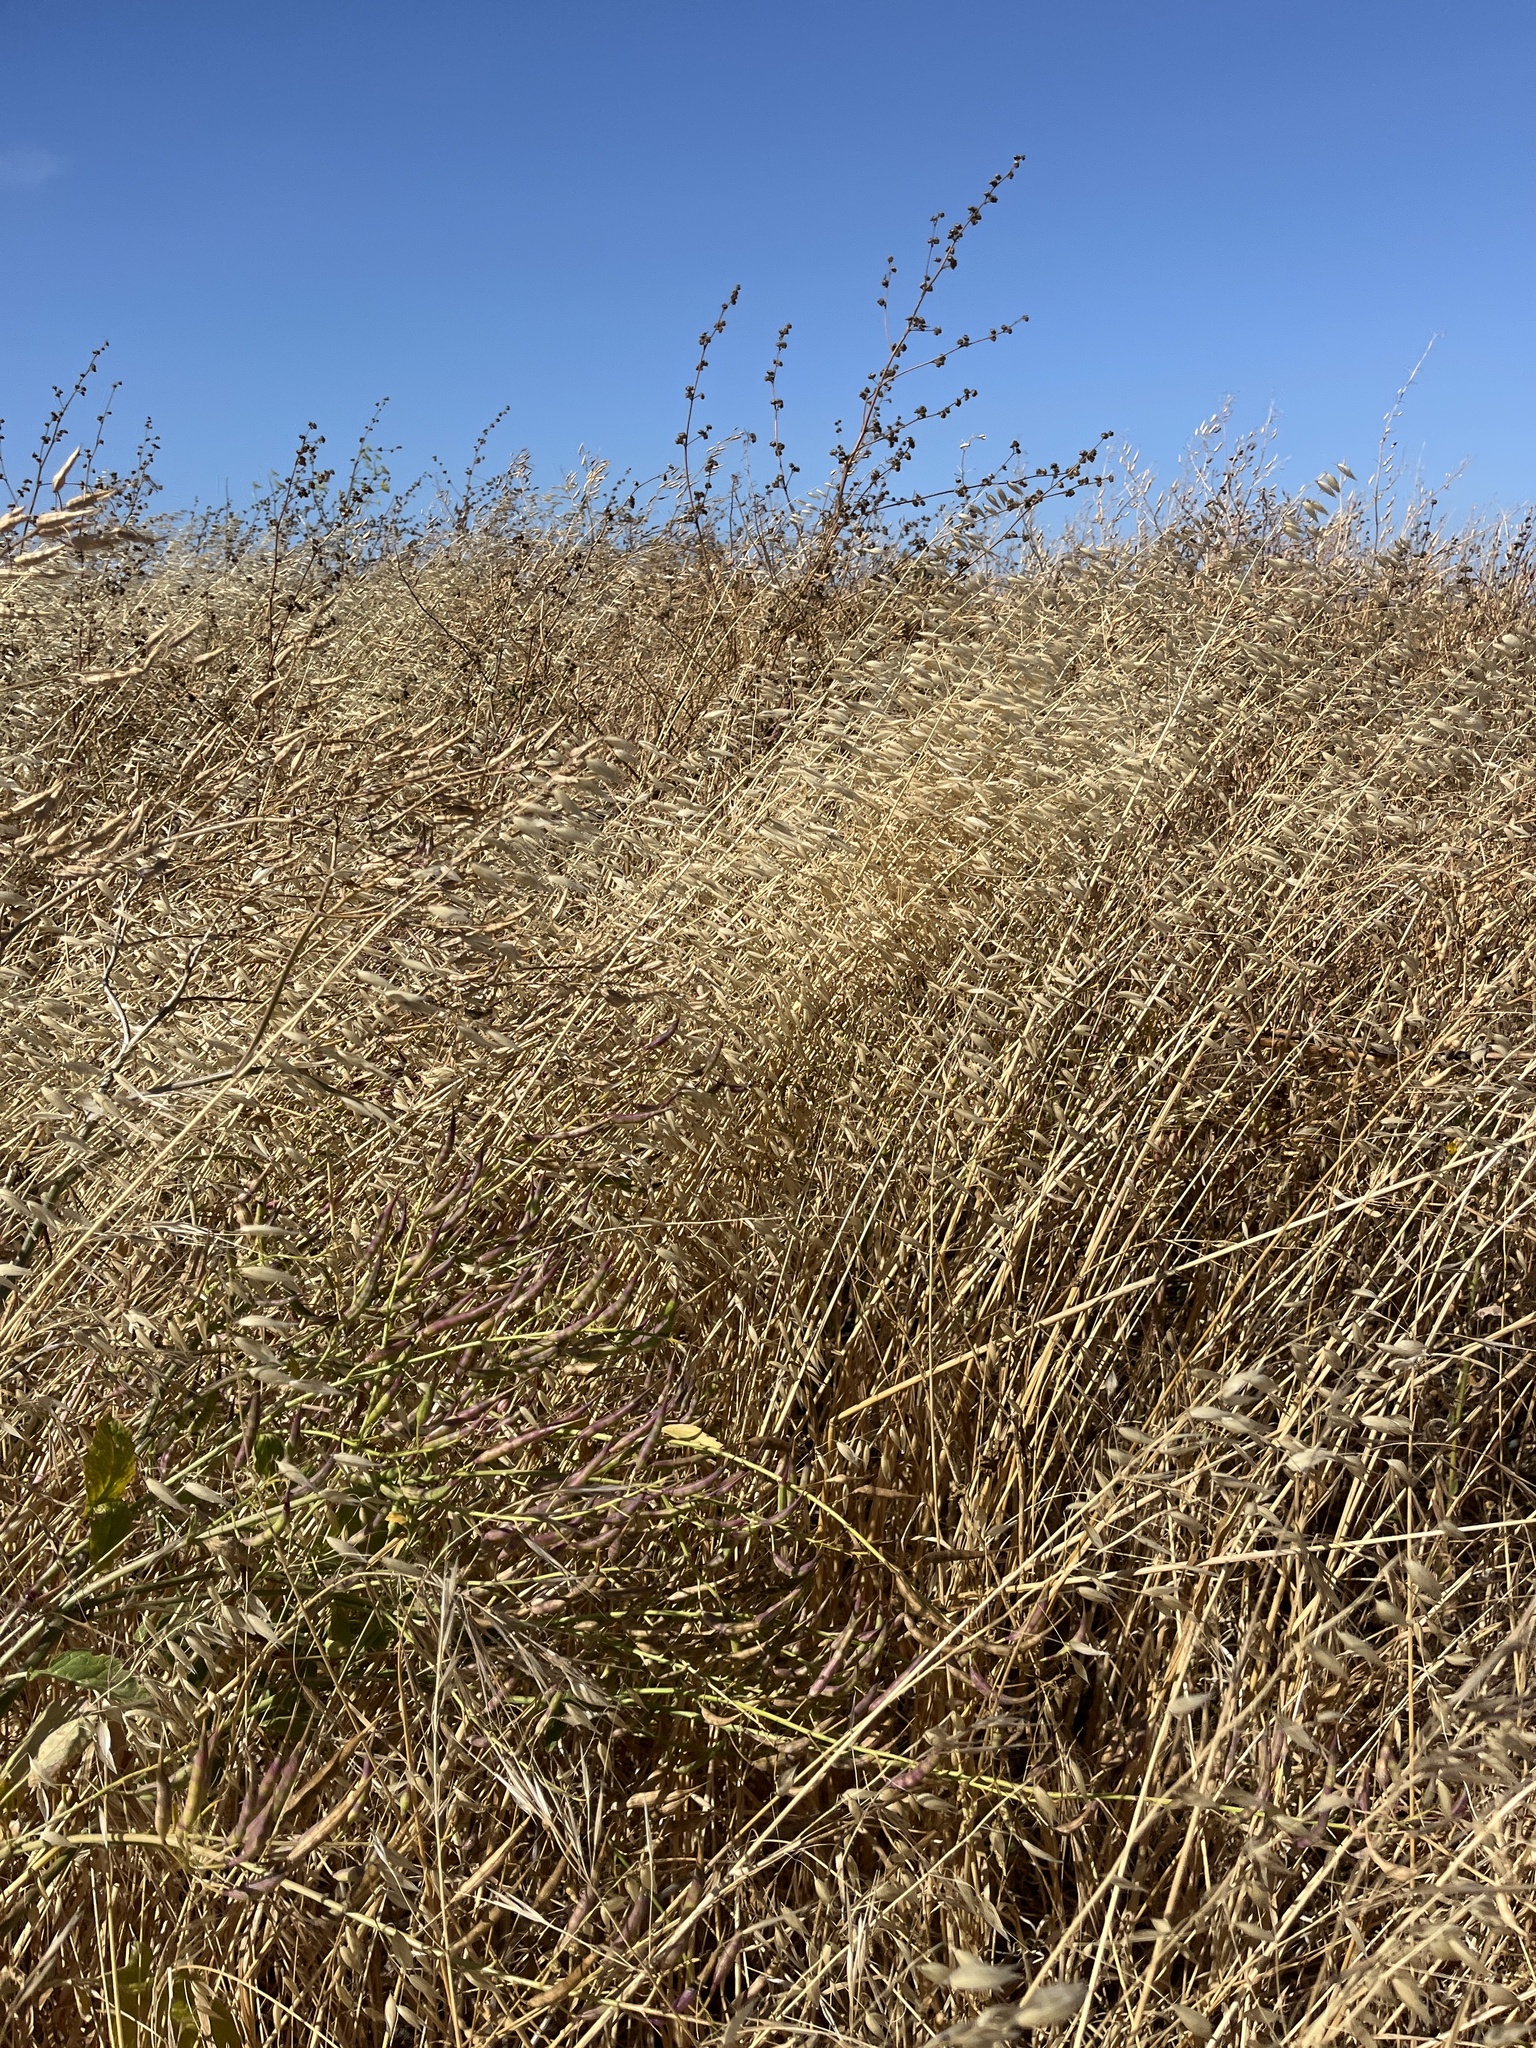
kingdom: Plantae
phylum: Tracheophyta
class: Liliopsida
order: Poales
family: Poaceae
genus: Avena
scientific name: Avena fatua
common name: Wild oat
